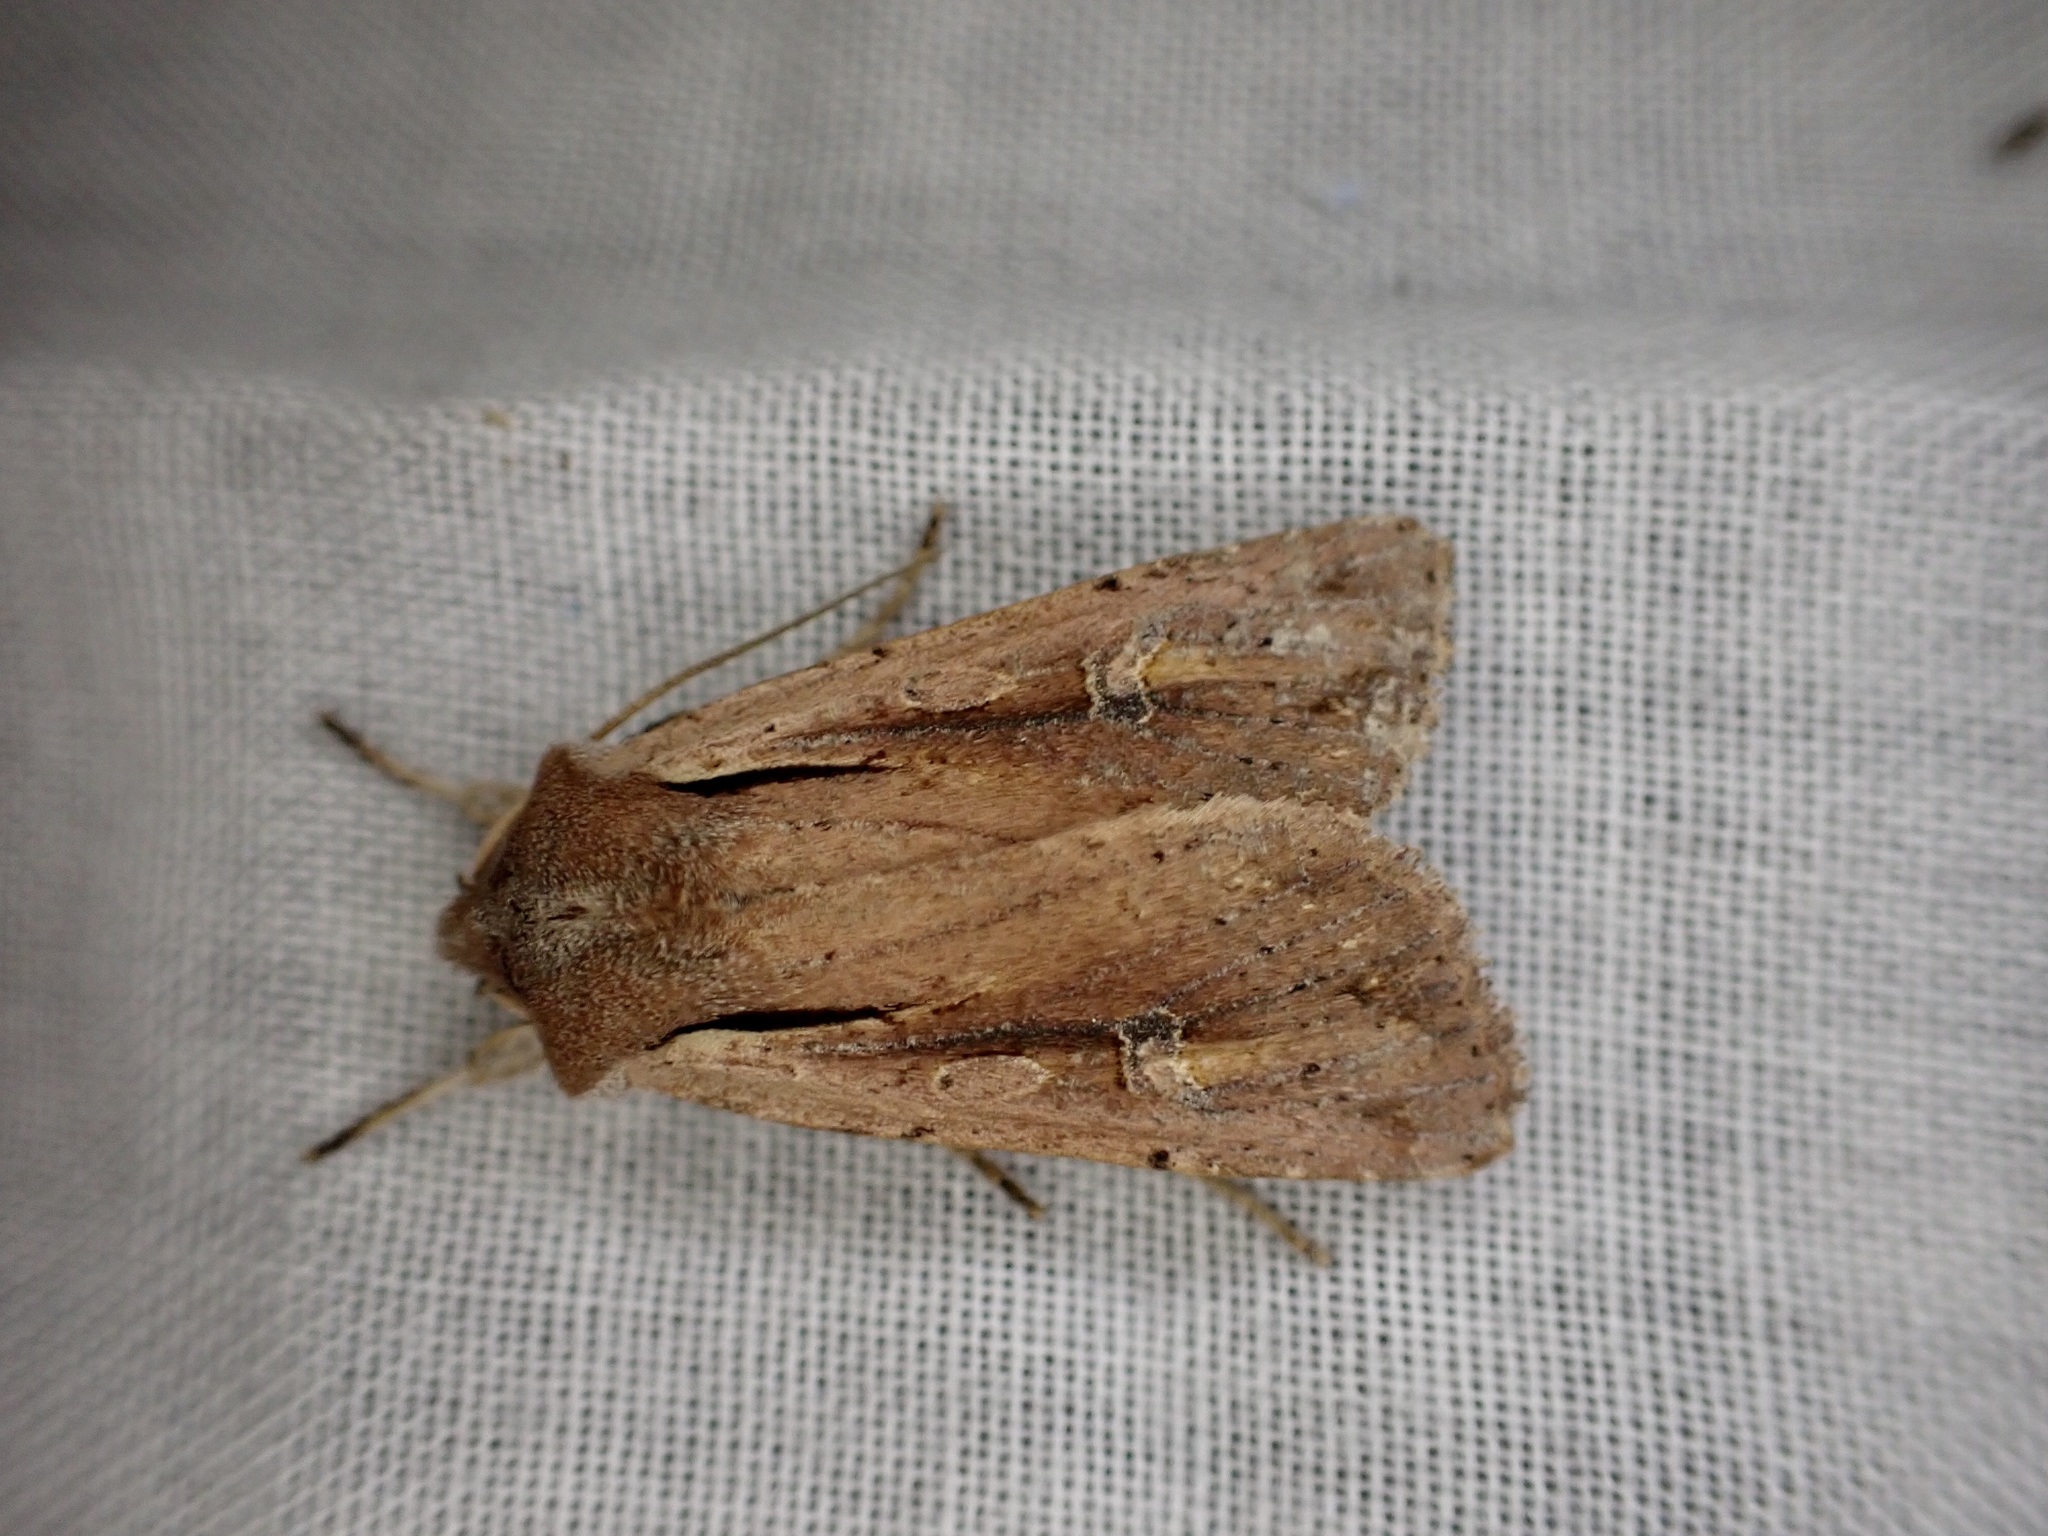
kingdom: Animalia
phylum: Arthropoda
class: Insecta
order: Lepidoptera
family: Noctuidae
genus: Ichneutica
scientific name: Ichneutica atristriga
